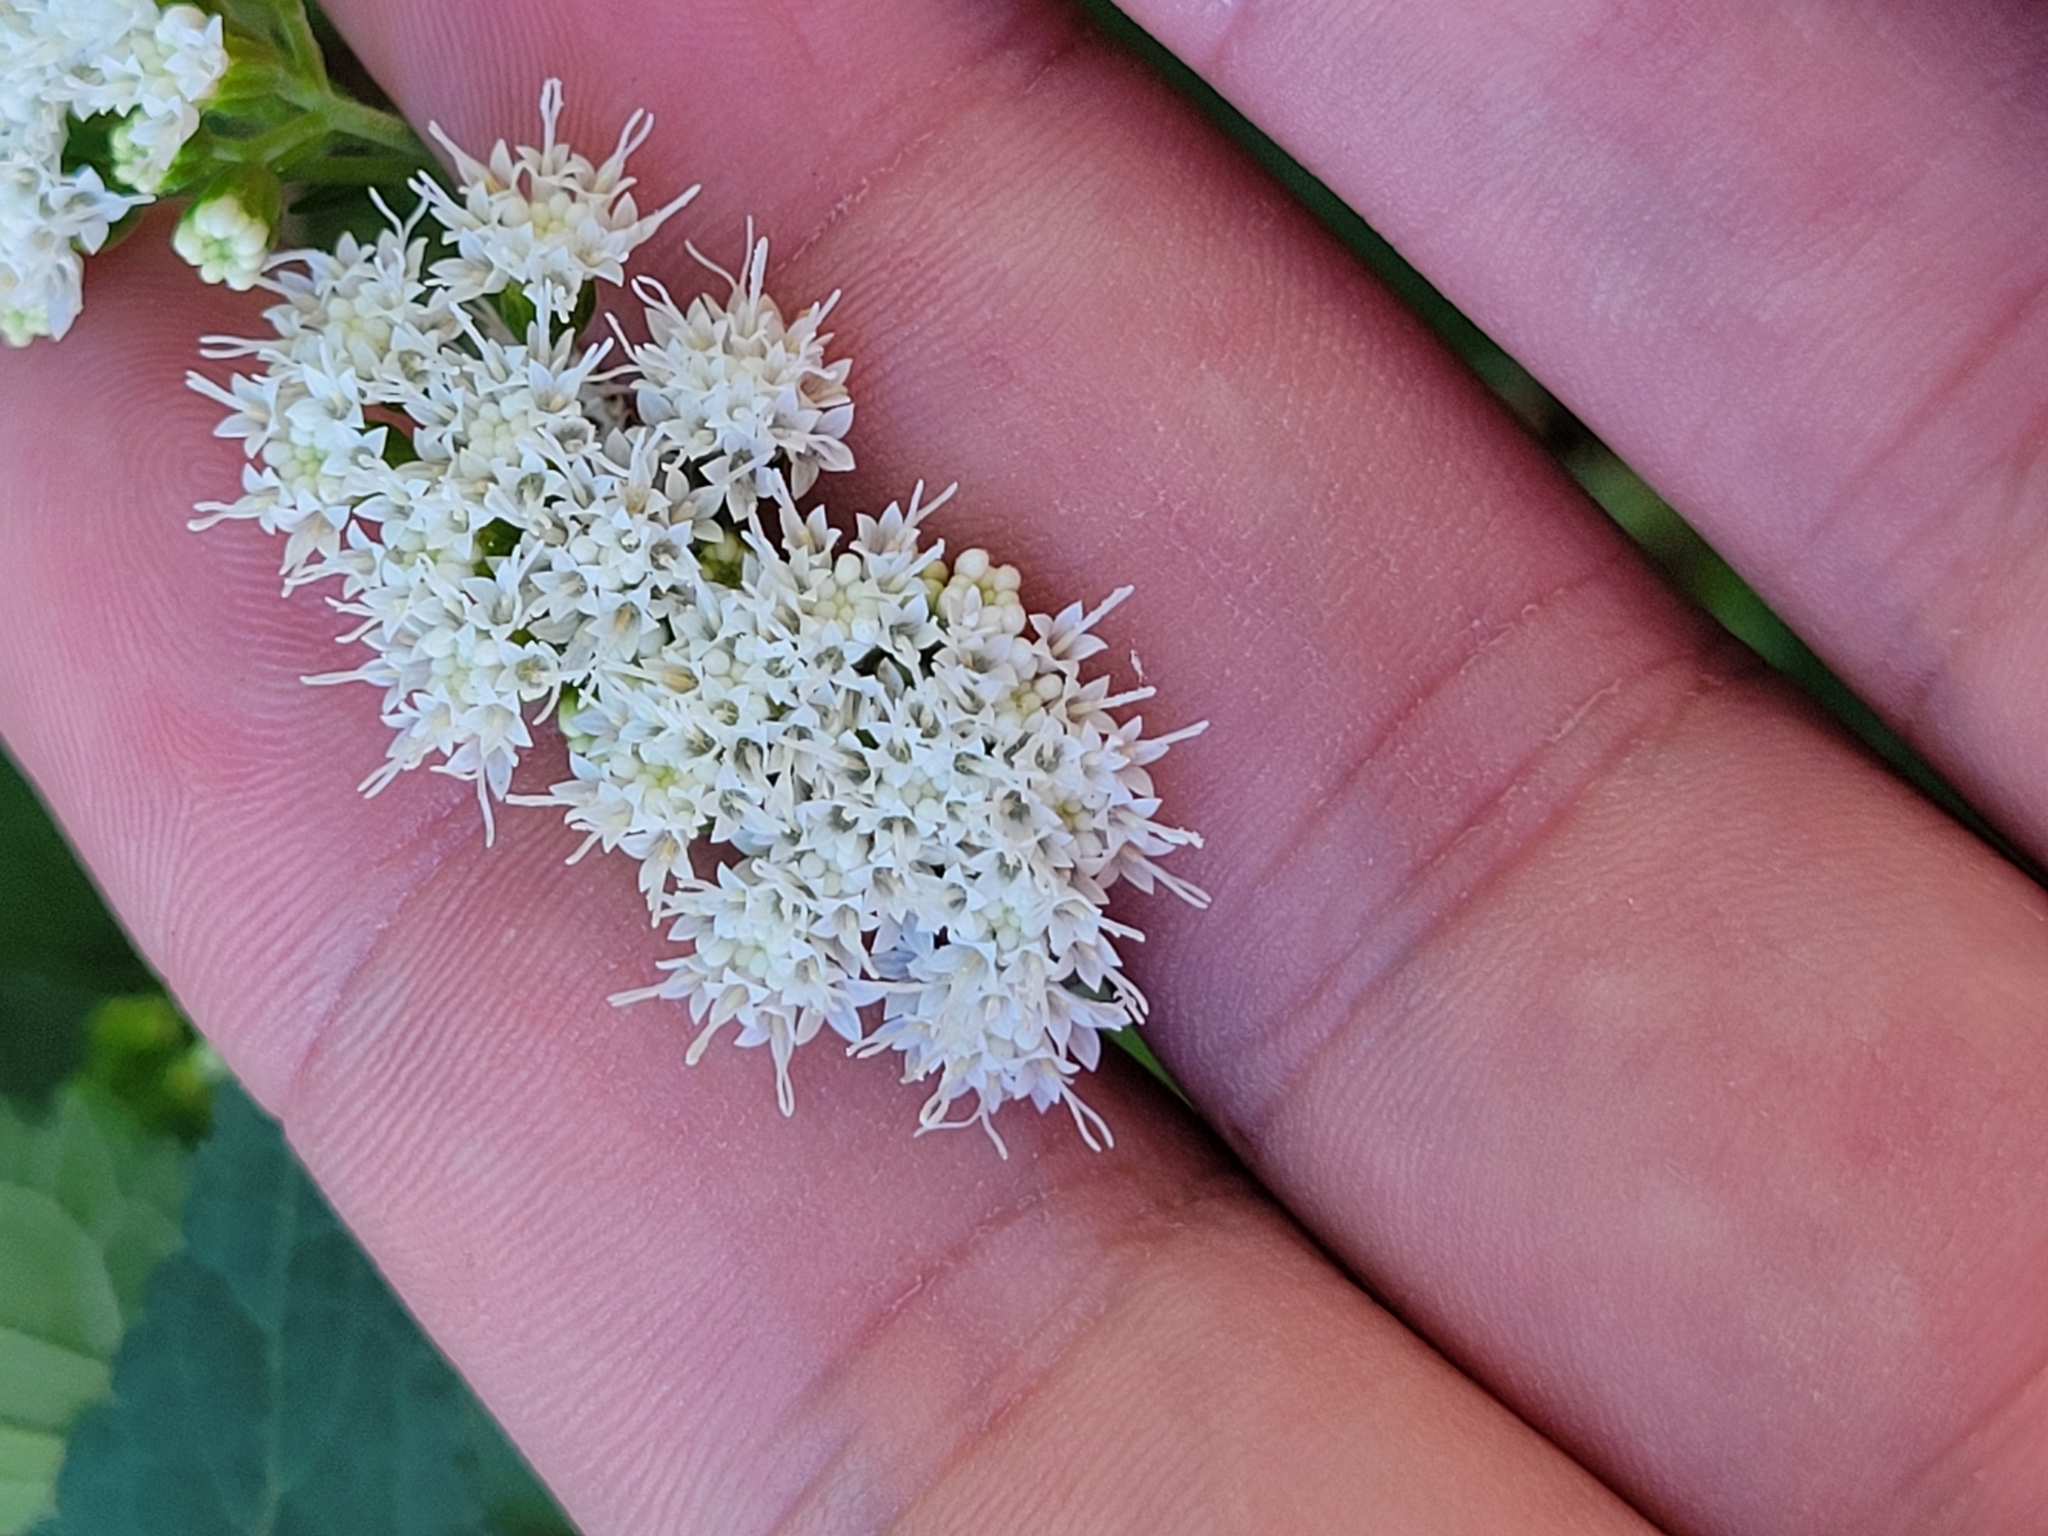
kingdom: Plantae
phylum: Tracheophyta
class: Magnoliopsida
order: Asterales
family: Asteraceae
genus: Ageratina
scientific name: Ageratina altissima
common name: White snakeroot
